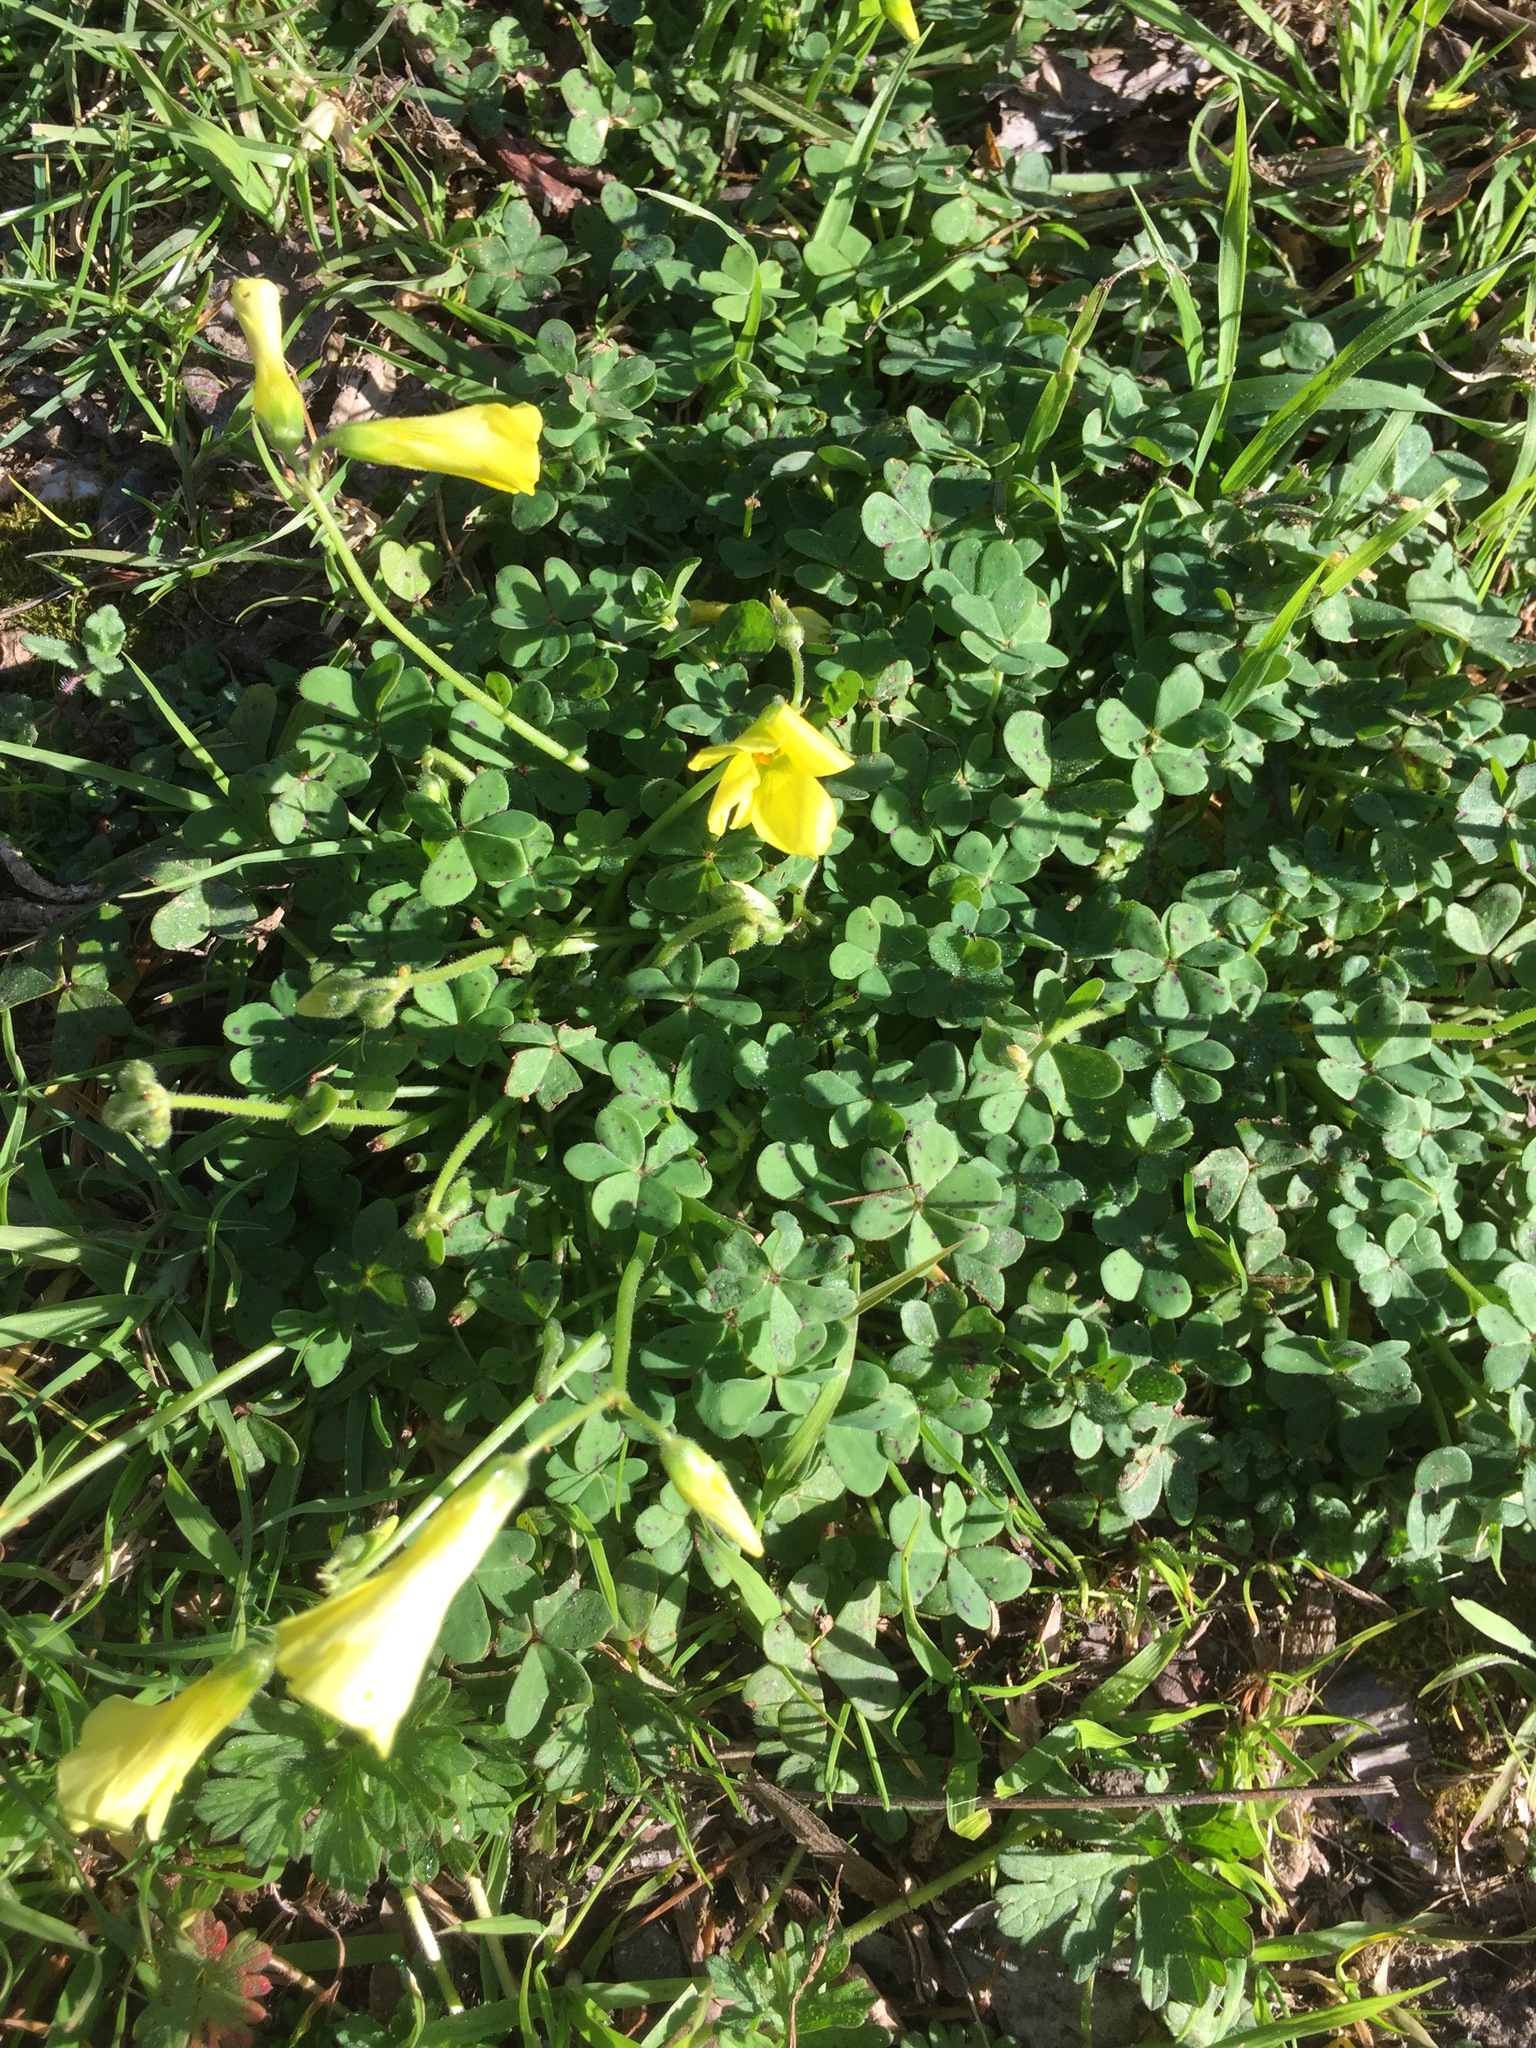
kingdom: Plantae
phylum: Tracheophyta
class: Magnoliopsida
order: Oxalidales
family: Oxalidaceae
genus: Oxalis
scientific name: Oxalis pes-caprae
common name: Bermuda-buttercup
